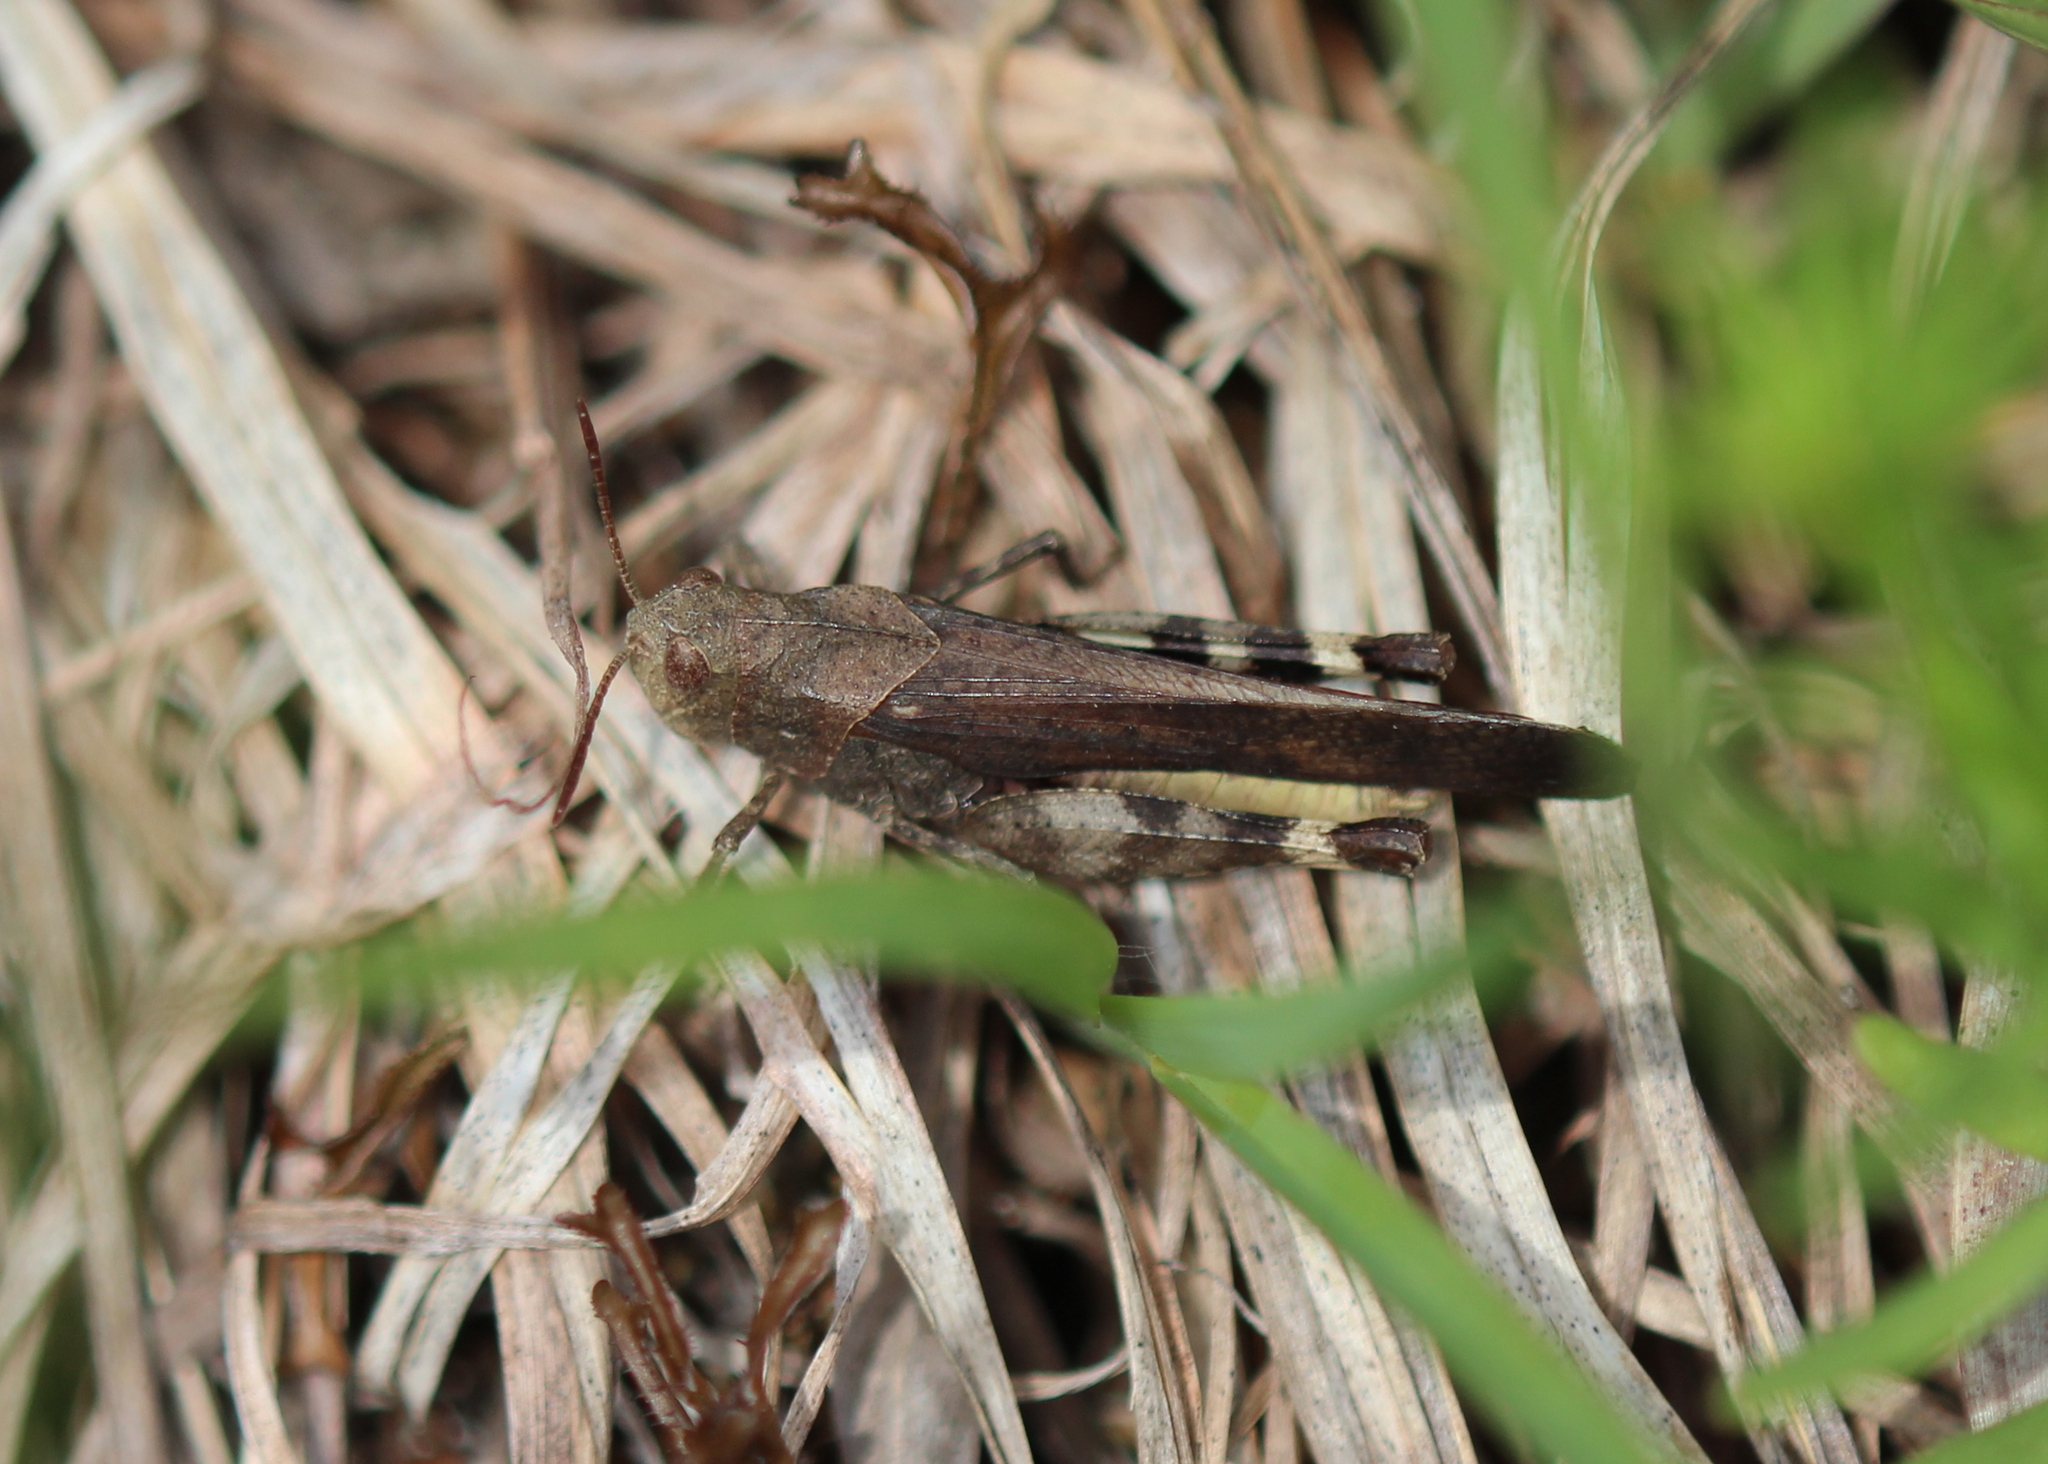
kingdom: Animalia
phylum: Arthropoda
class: Insecta
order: Orthoptera
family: Acrididae
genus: Arphia
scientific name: Arphia sulphurea
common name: Spring yellow-winged locust
